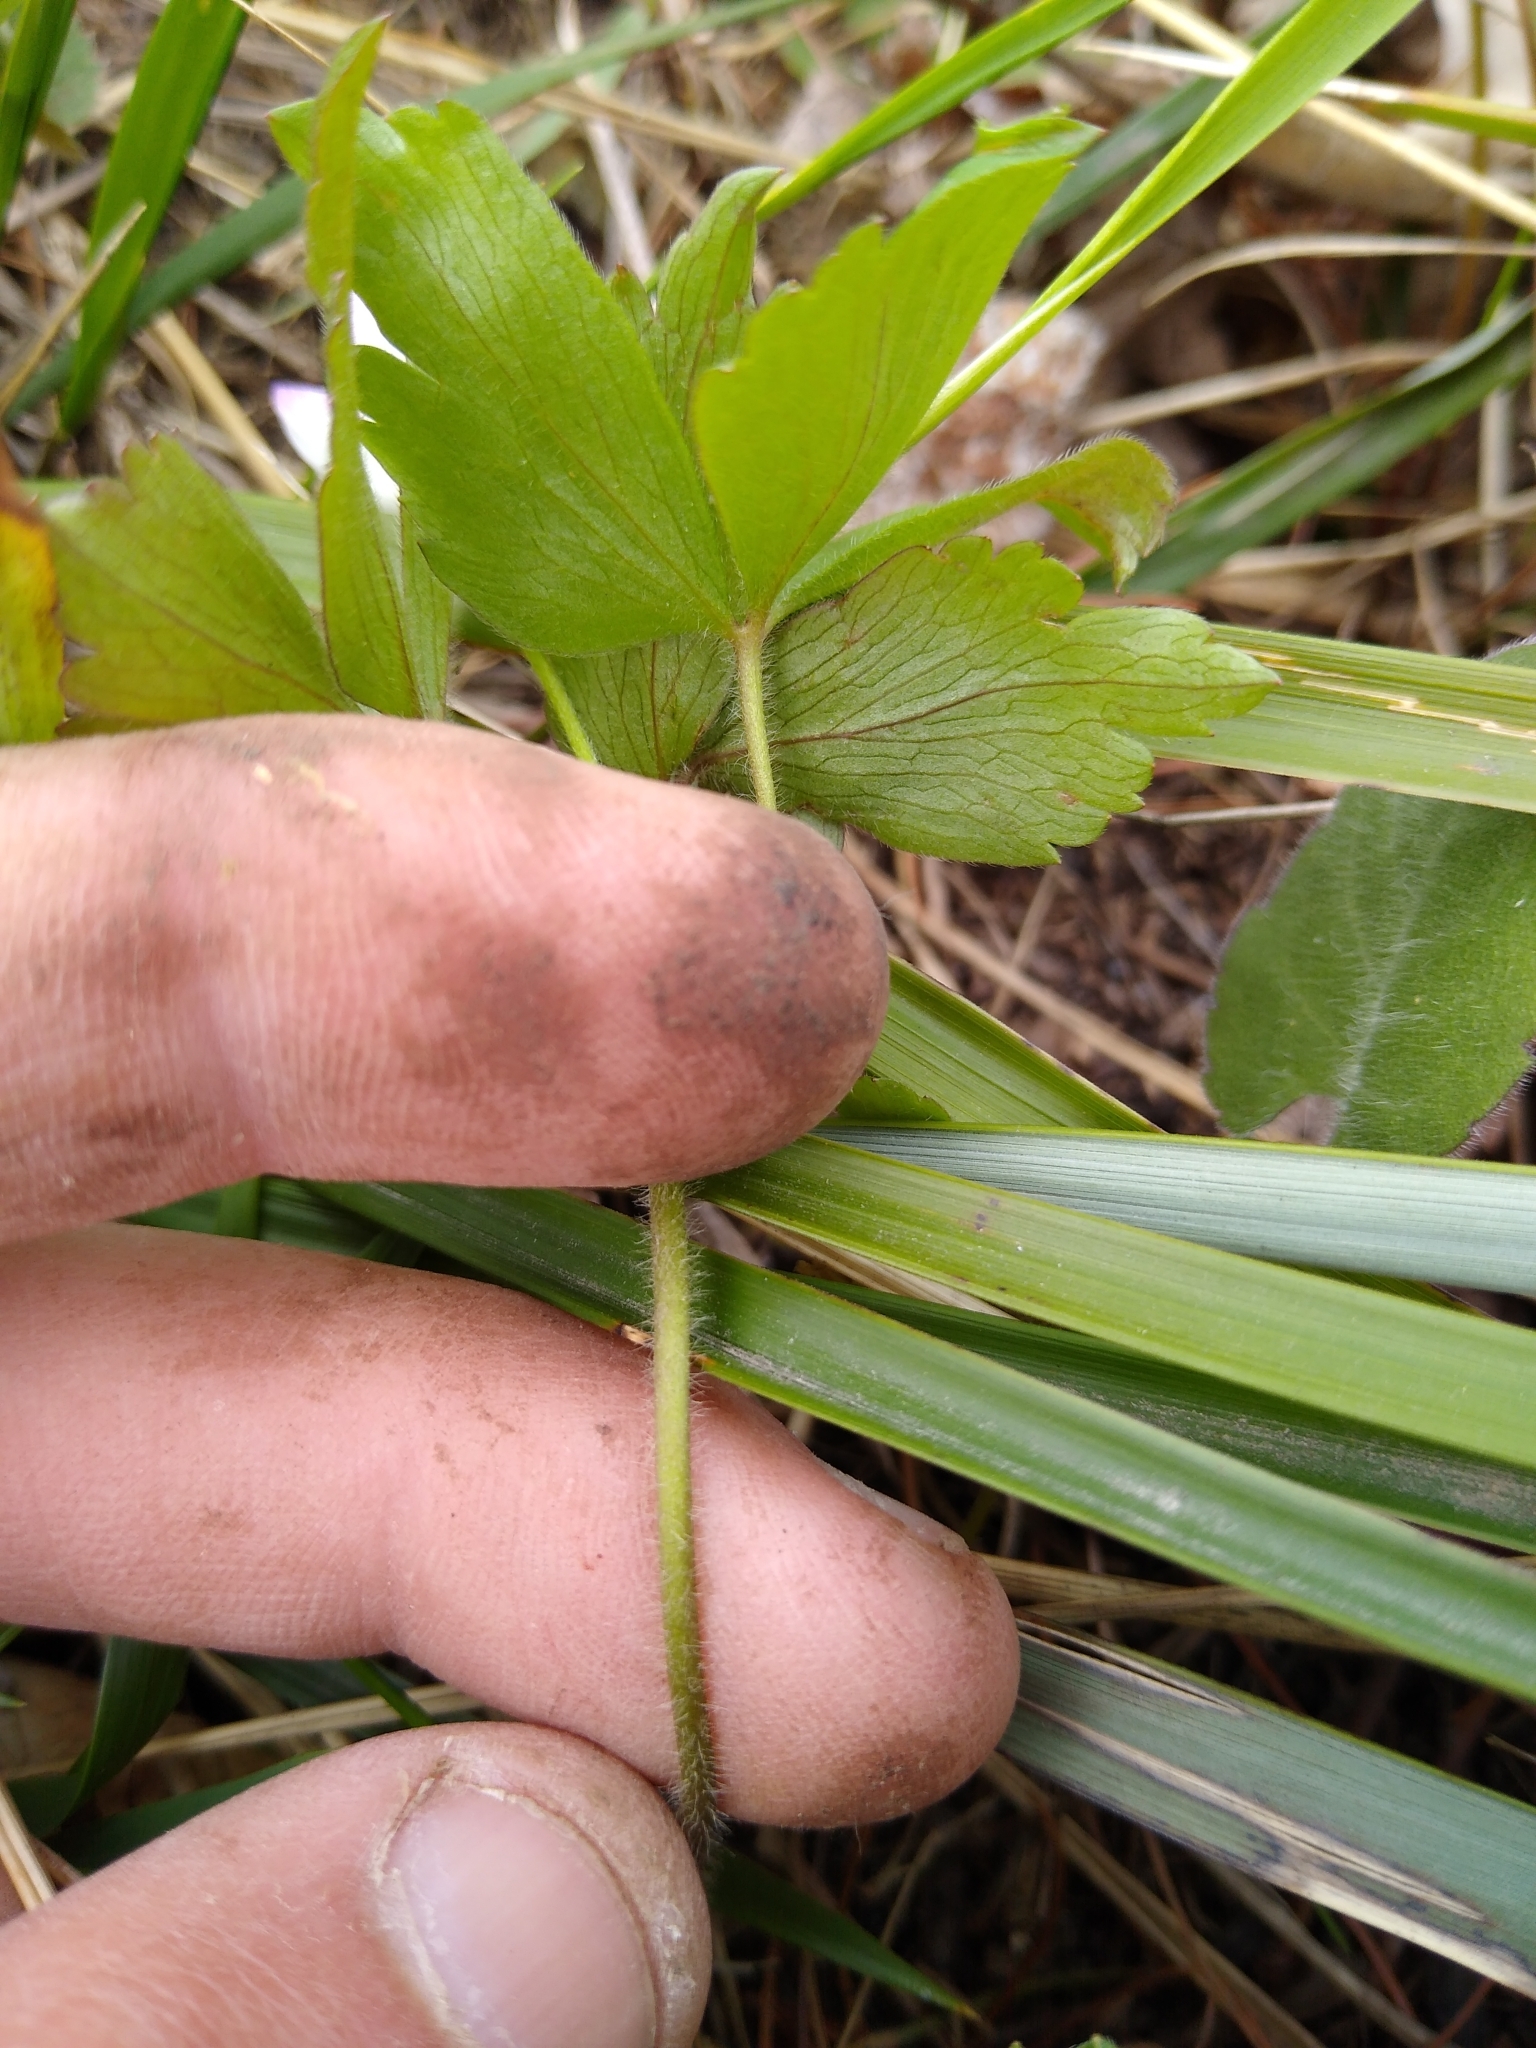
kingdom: Plantae
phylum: Tracheophyta
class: Magnoliopsida
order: Ranunculales
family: Ranunculaceae
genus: Anemone
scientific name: Anemone quinquefolia
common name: Wood anemone
